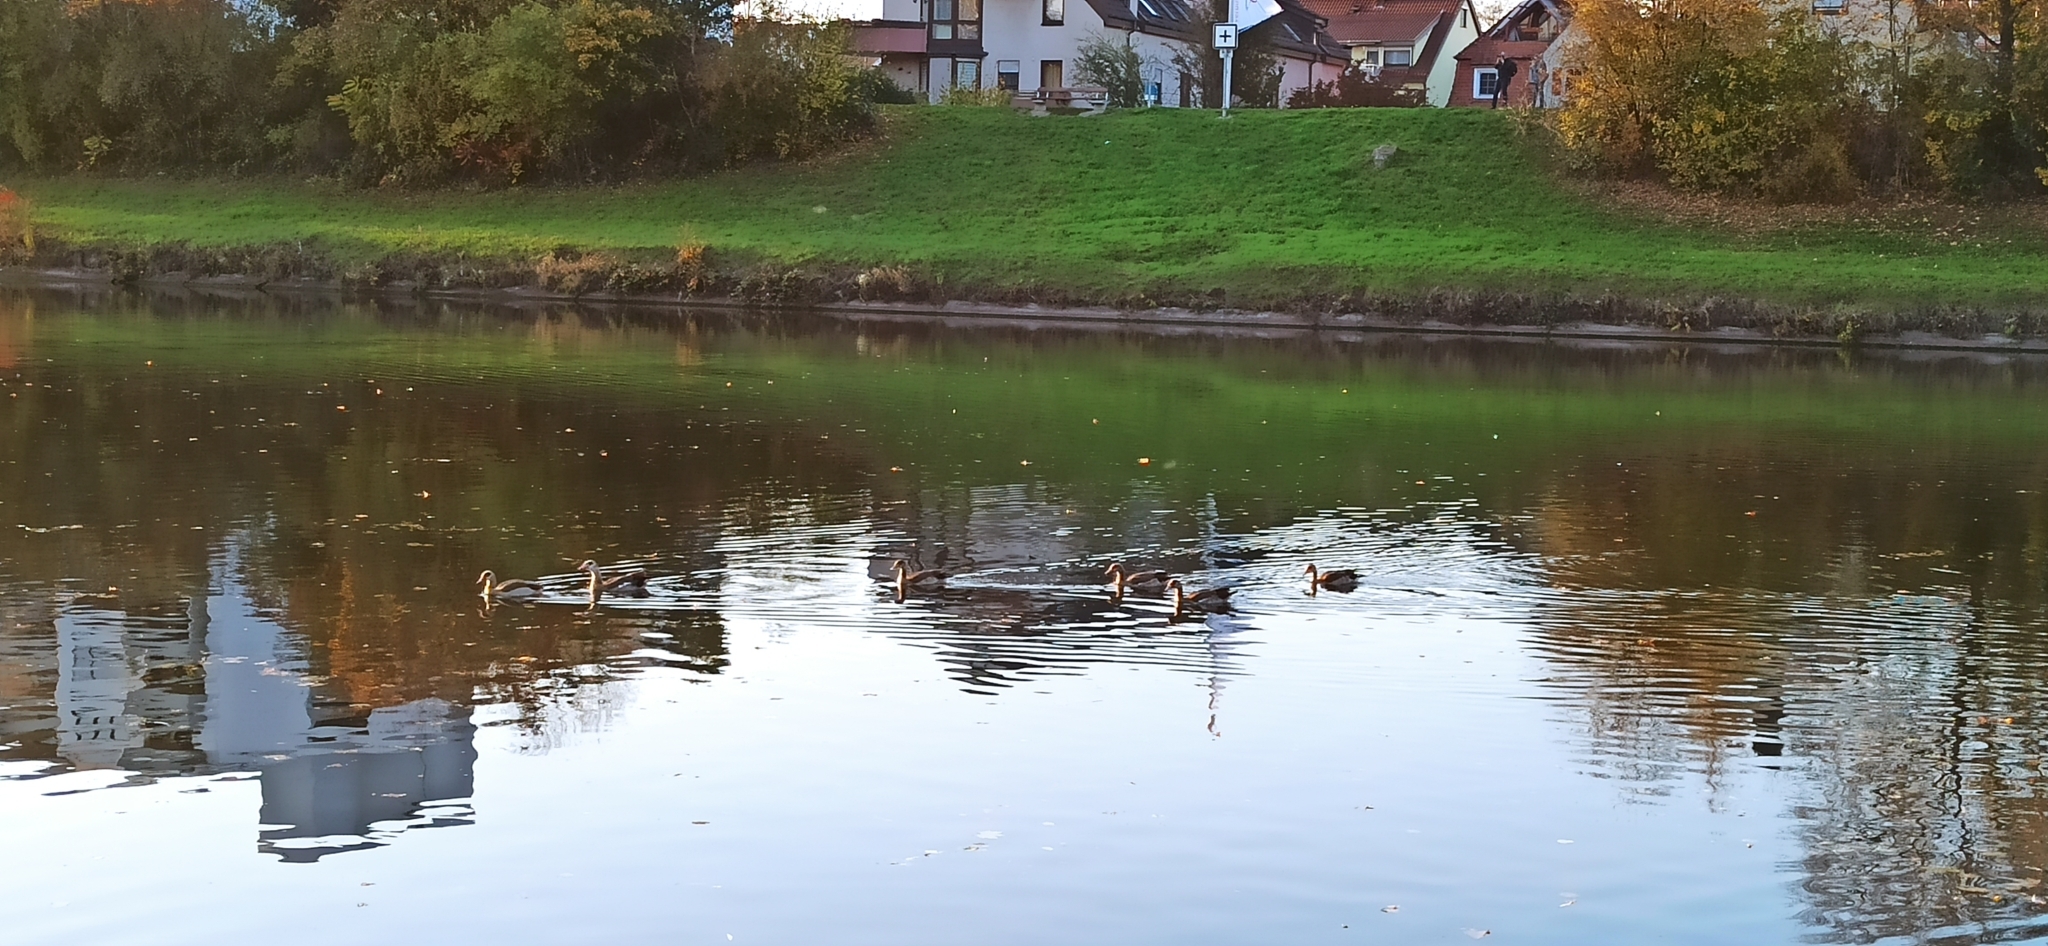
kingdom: Animalia
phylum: Chordata
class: Aves
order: Anseriformes
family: Anatidae
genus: Alopochen
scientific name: Alopochen aegyptiaca
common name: Egyptian goose
